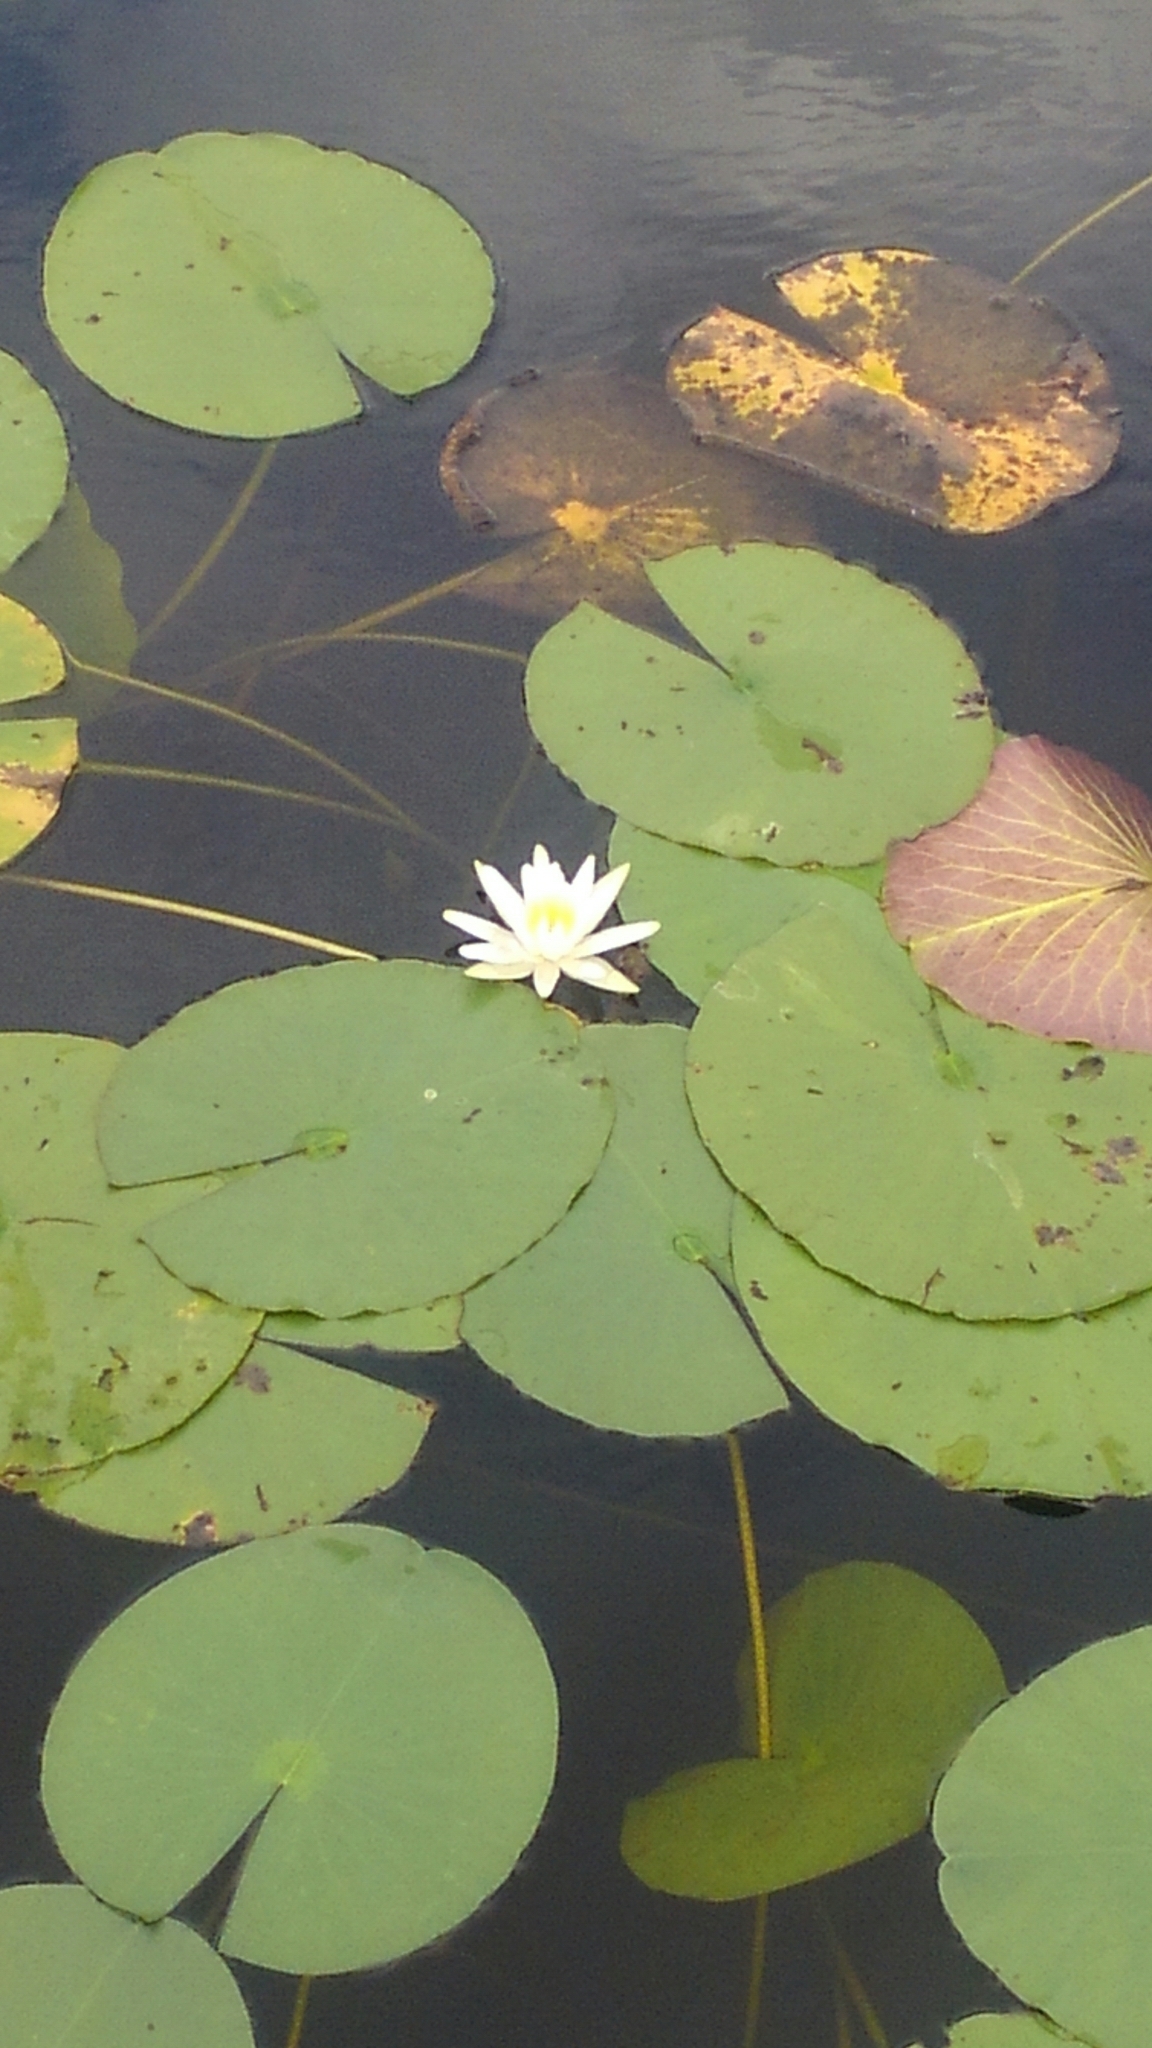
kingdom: Plantae
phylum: Tracheophyta
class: Magnoliopsida
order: Nymphaeales
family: Nymphaeaceae
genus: Nymphaea
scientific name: Nymphaea odorata
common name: Fragrant water-lily
